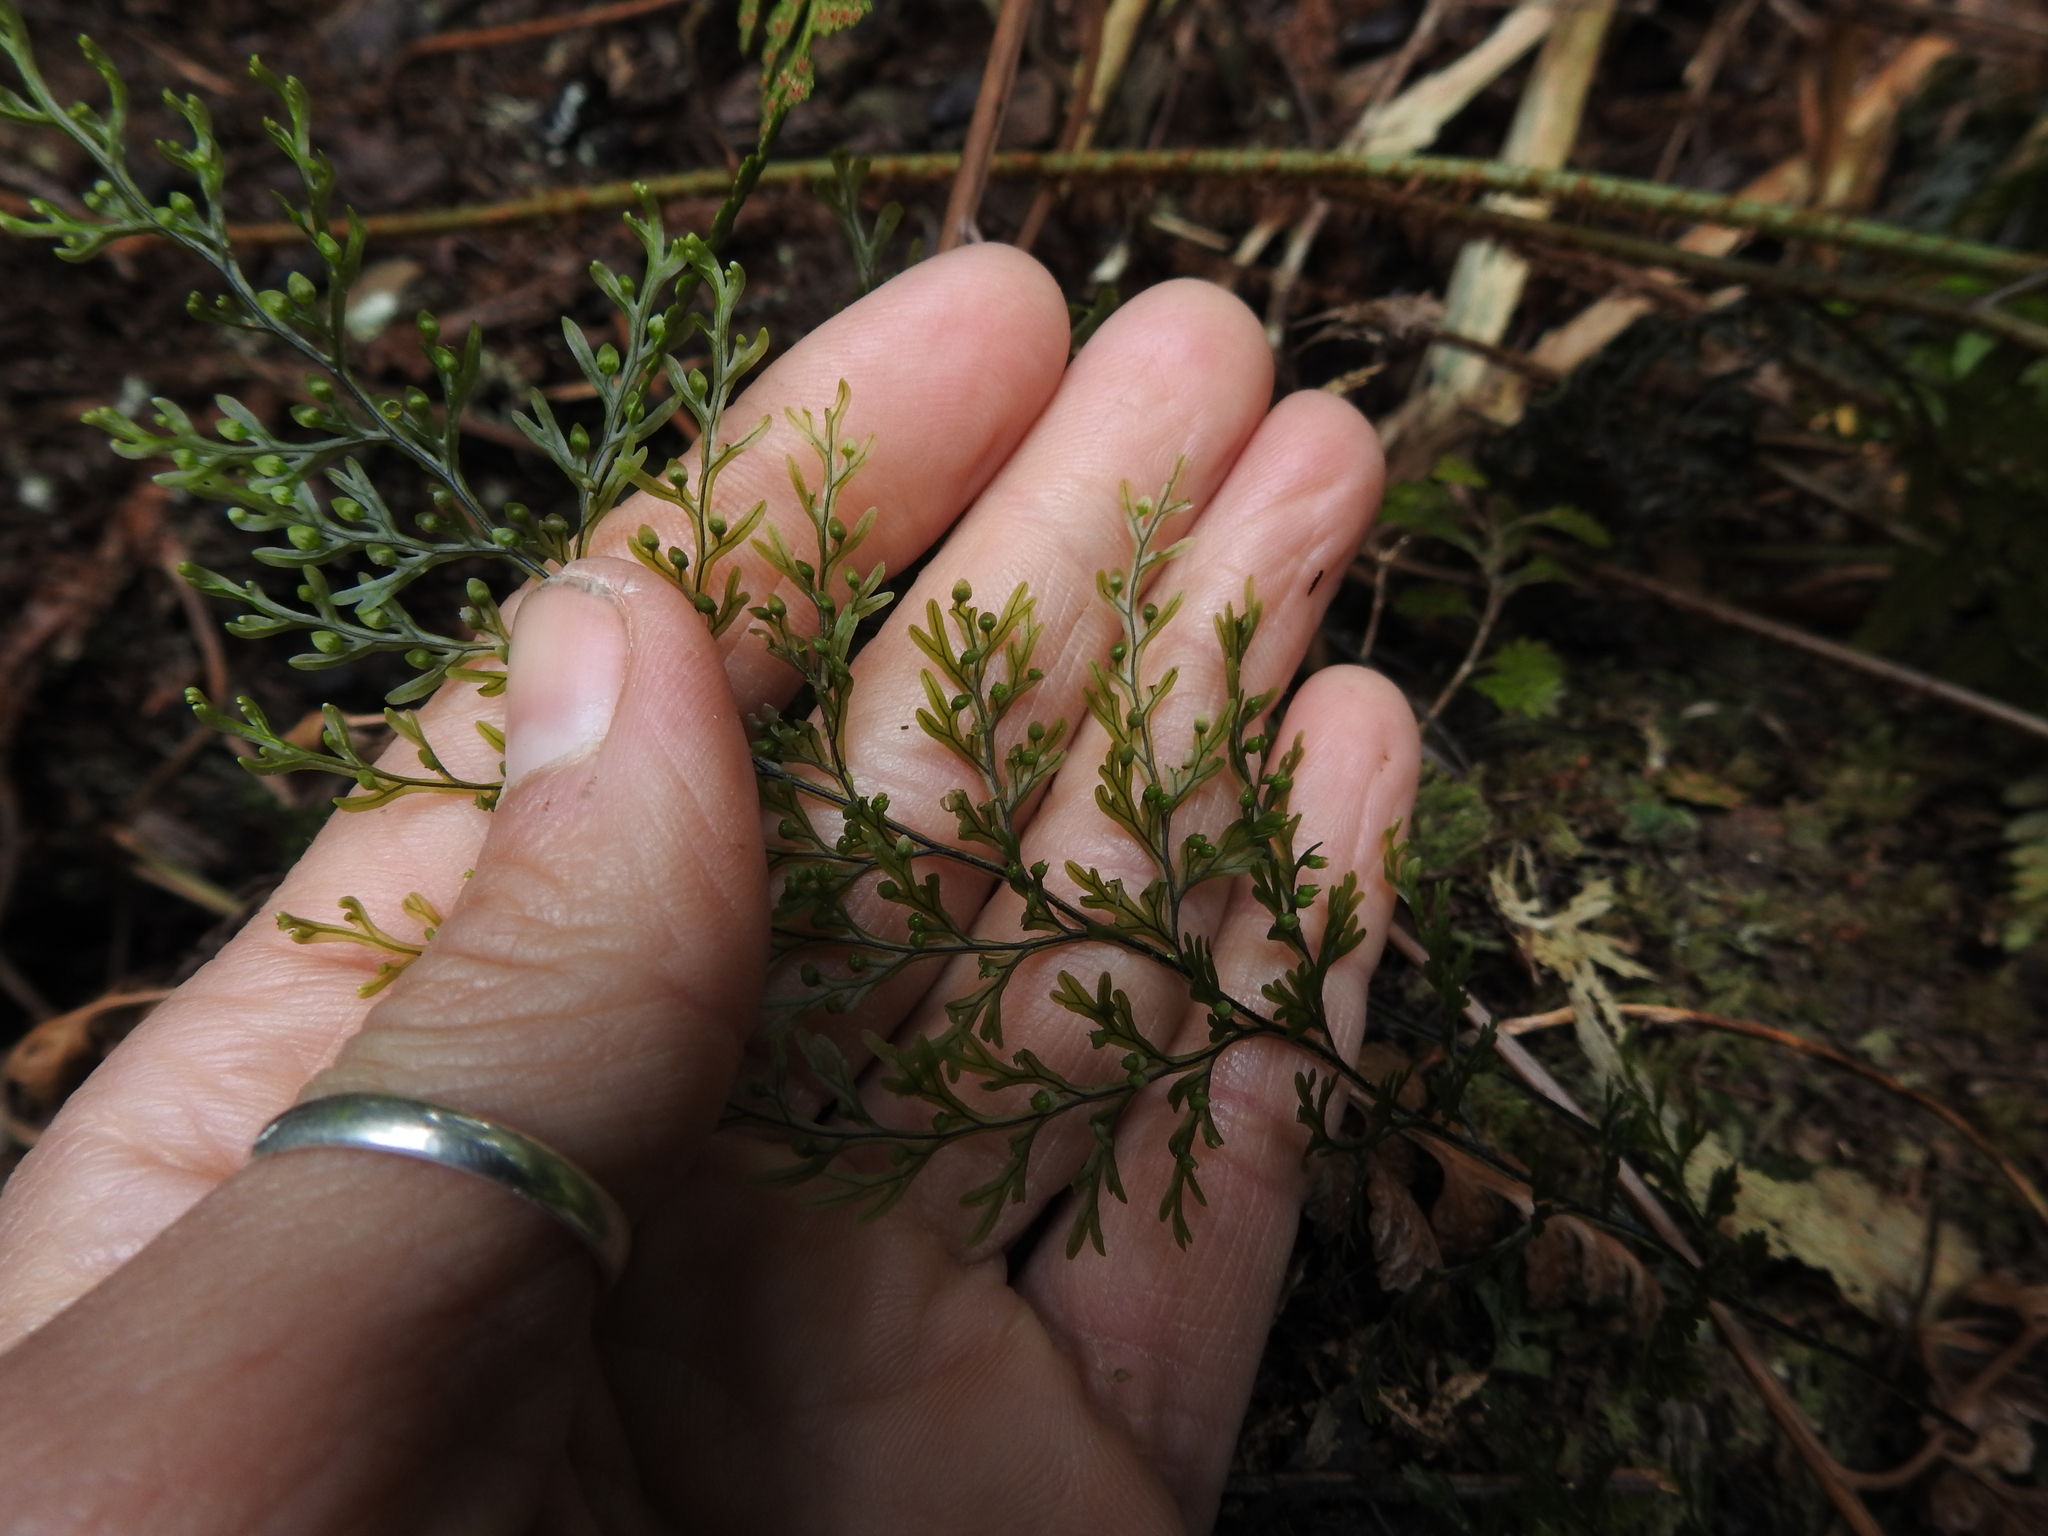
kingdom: Plantae
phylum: Tracheophyta
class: Polypodiopsida
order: Hymenophyllales
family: Hymenophyllaceae
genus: Hymenophyllum
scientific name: Hymenophyllum sanguinolentum
